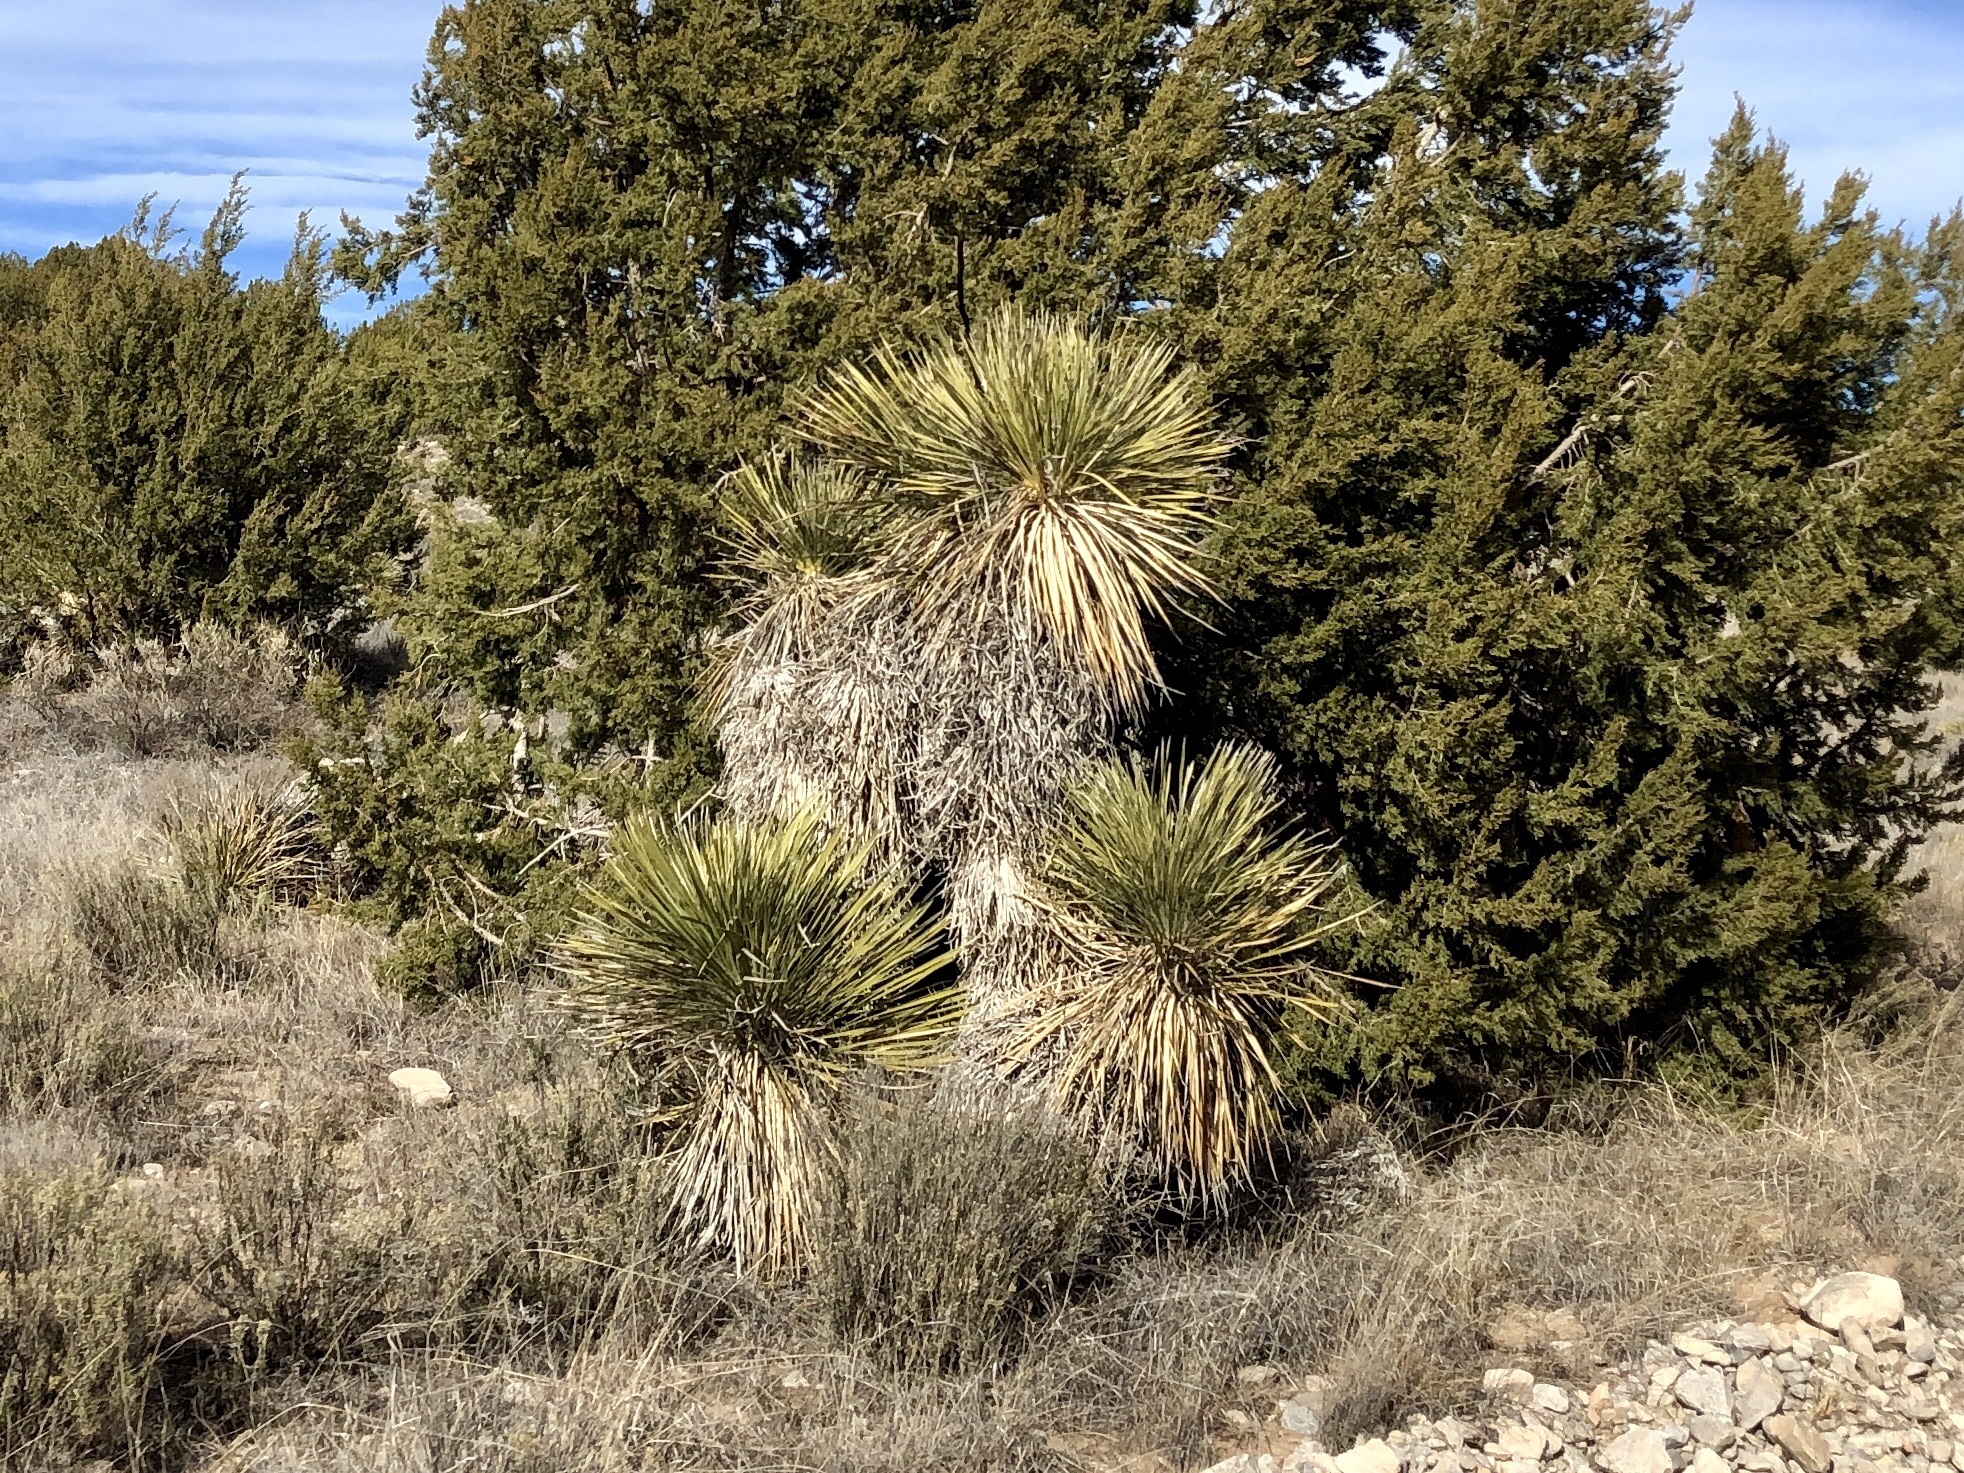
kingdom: Plantae
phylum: Tracheophyta
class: Liliopsida
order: Asparagales
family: Asparagaceae
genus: Yucca
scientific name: Yucca elata
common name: Palmella
